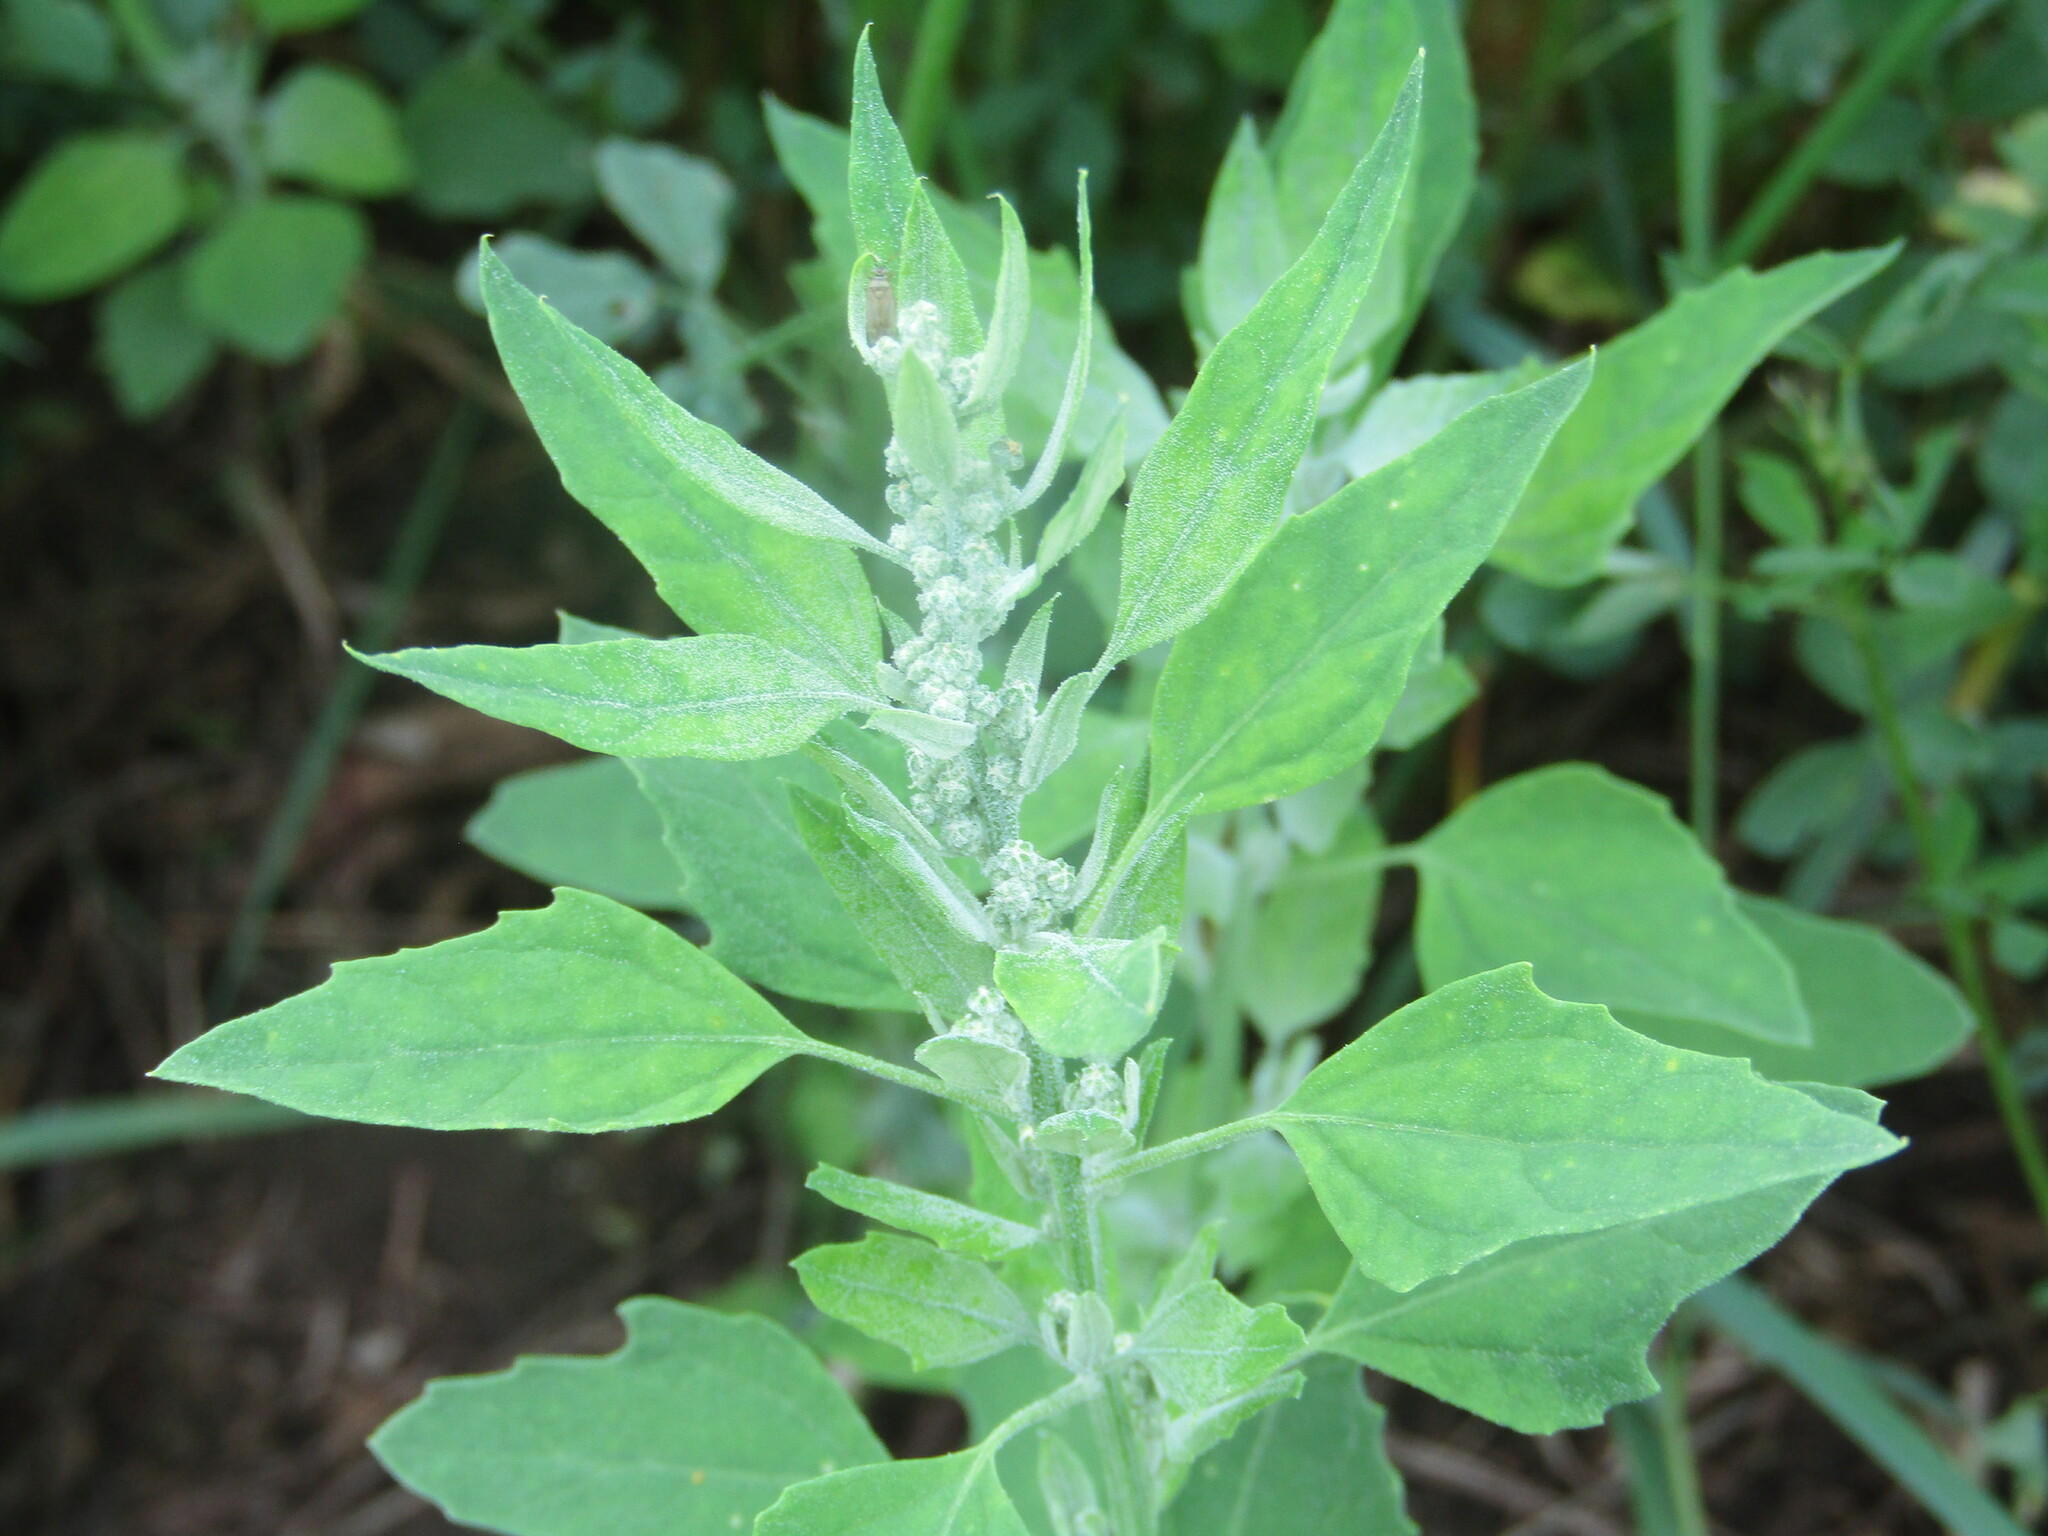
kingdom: Plantae
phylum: Tracheophyta
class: Magnoliopsida
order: Caryophyllales
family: Amaranthaceae
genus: Chenopodium
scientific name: Chenopodium album
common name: Fat-hen
